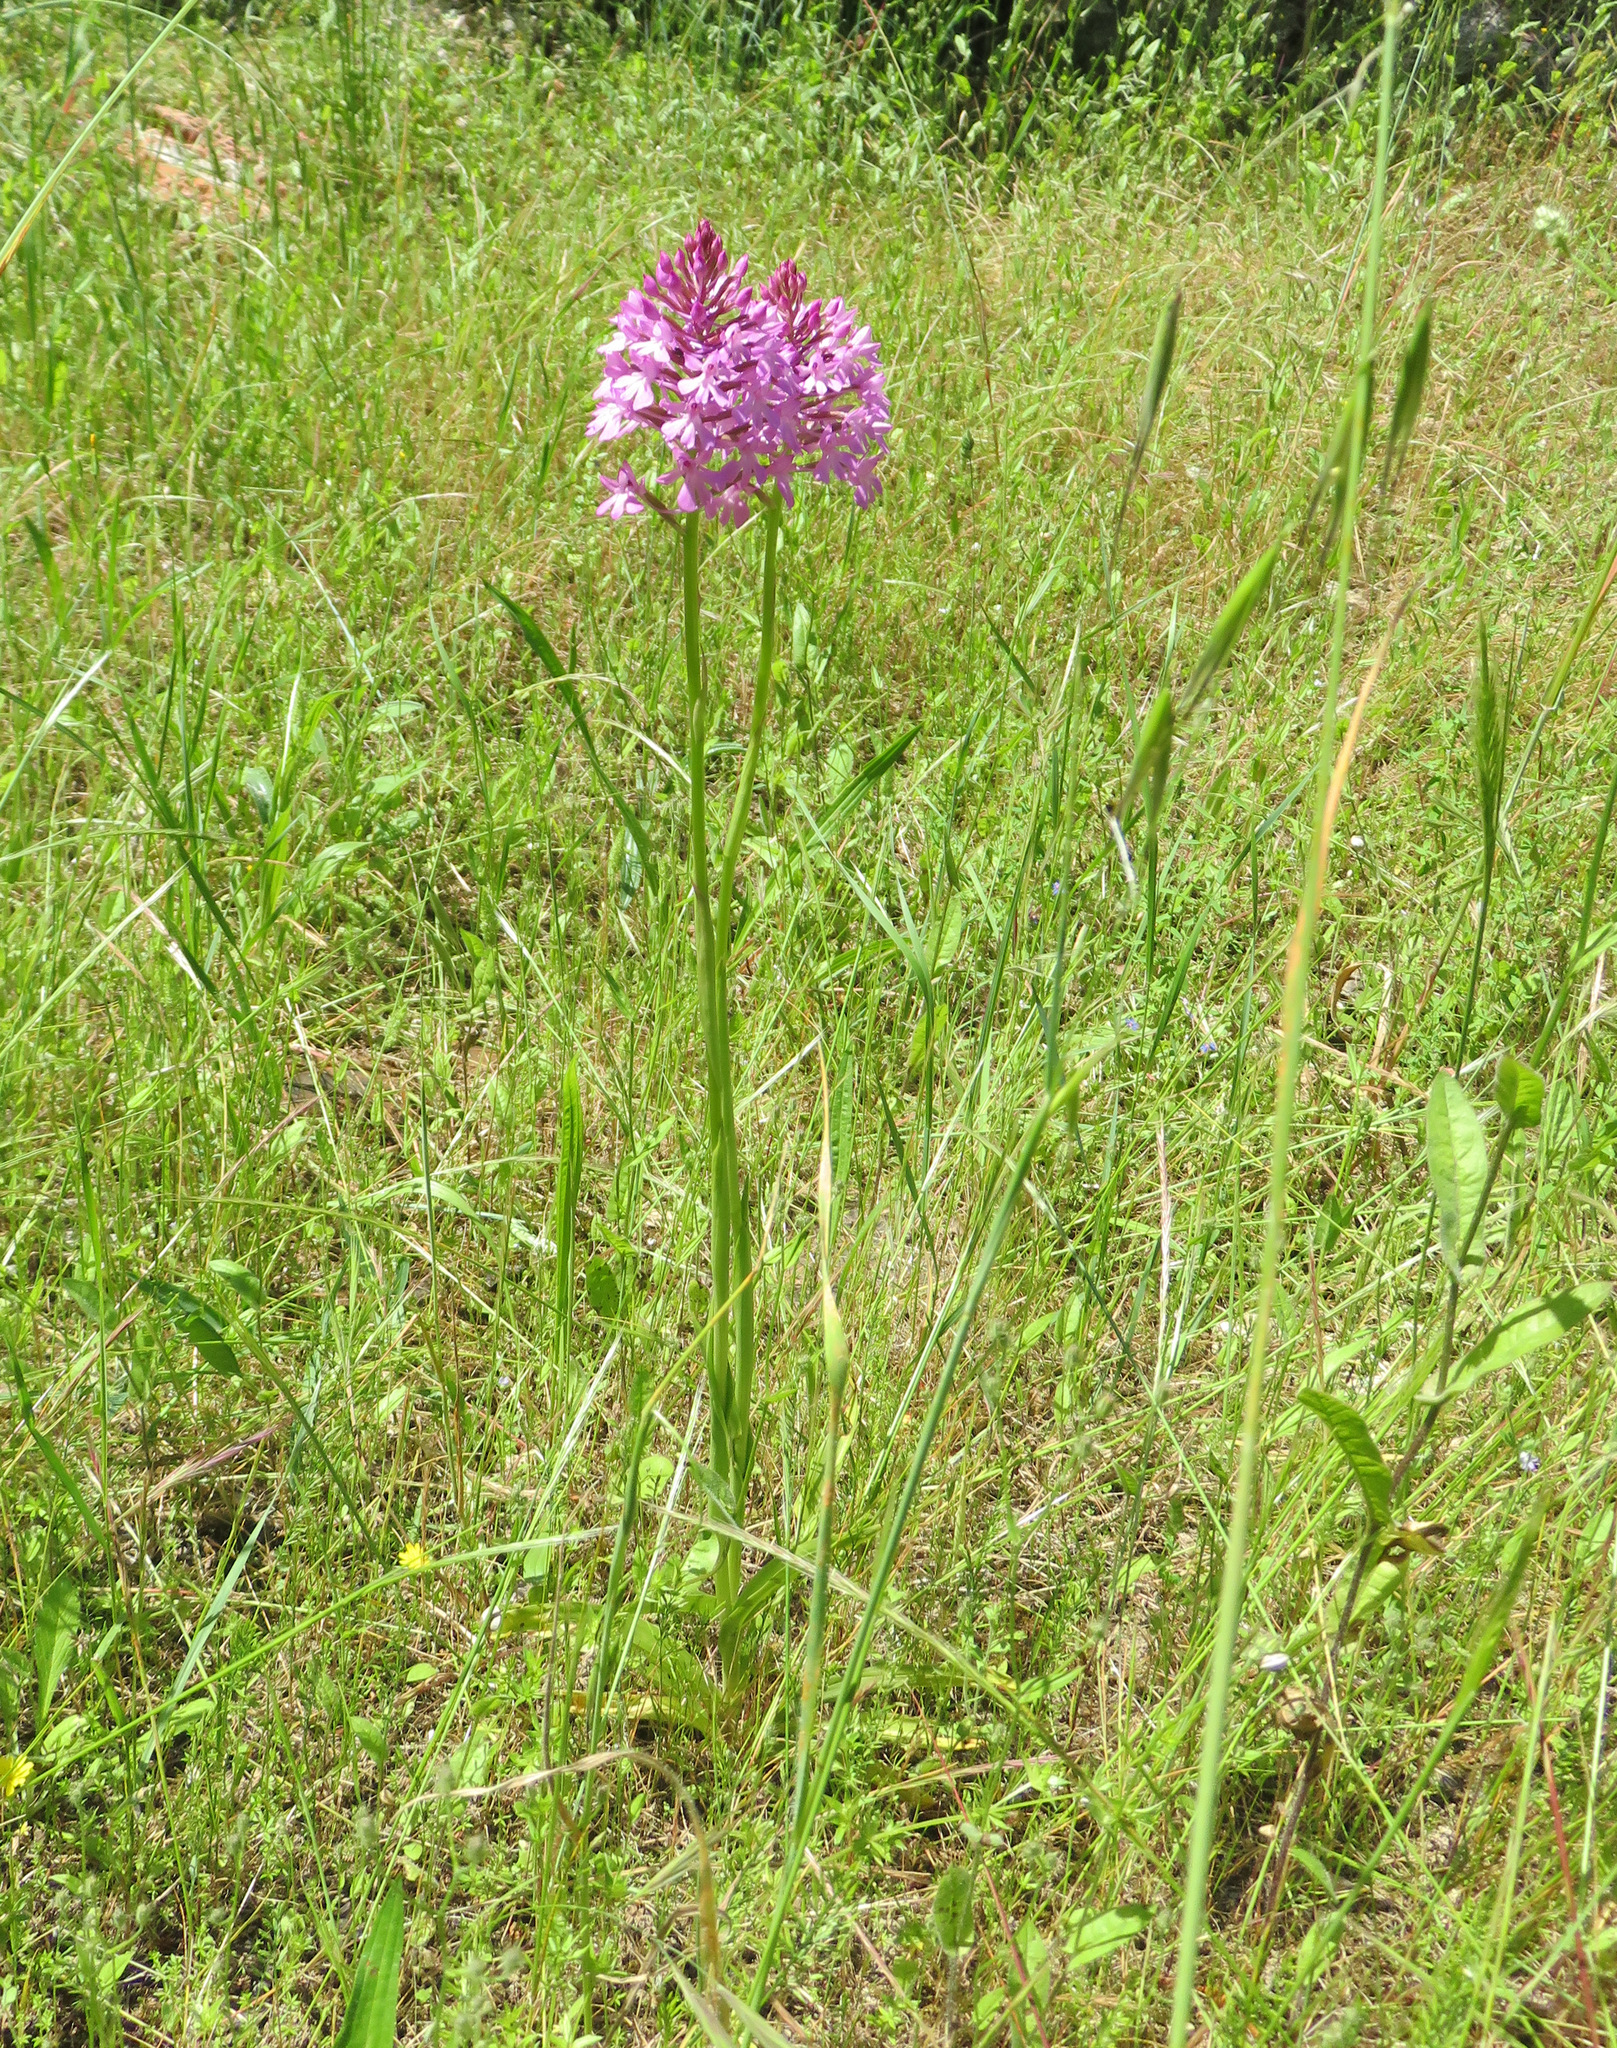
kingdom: Plantae
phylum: Tracheophyta
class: Liliopsida
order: Asparagales
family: Orchidaceae
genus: Anacamptis
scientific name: Anacamptis pyramidalis
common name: Pyramidal orchid
